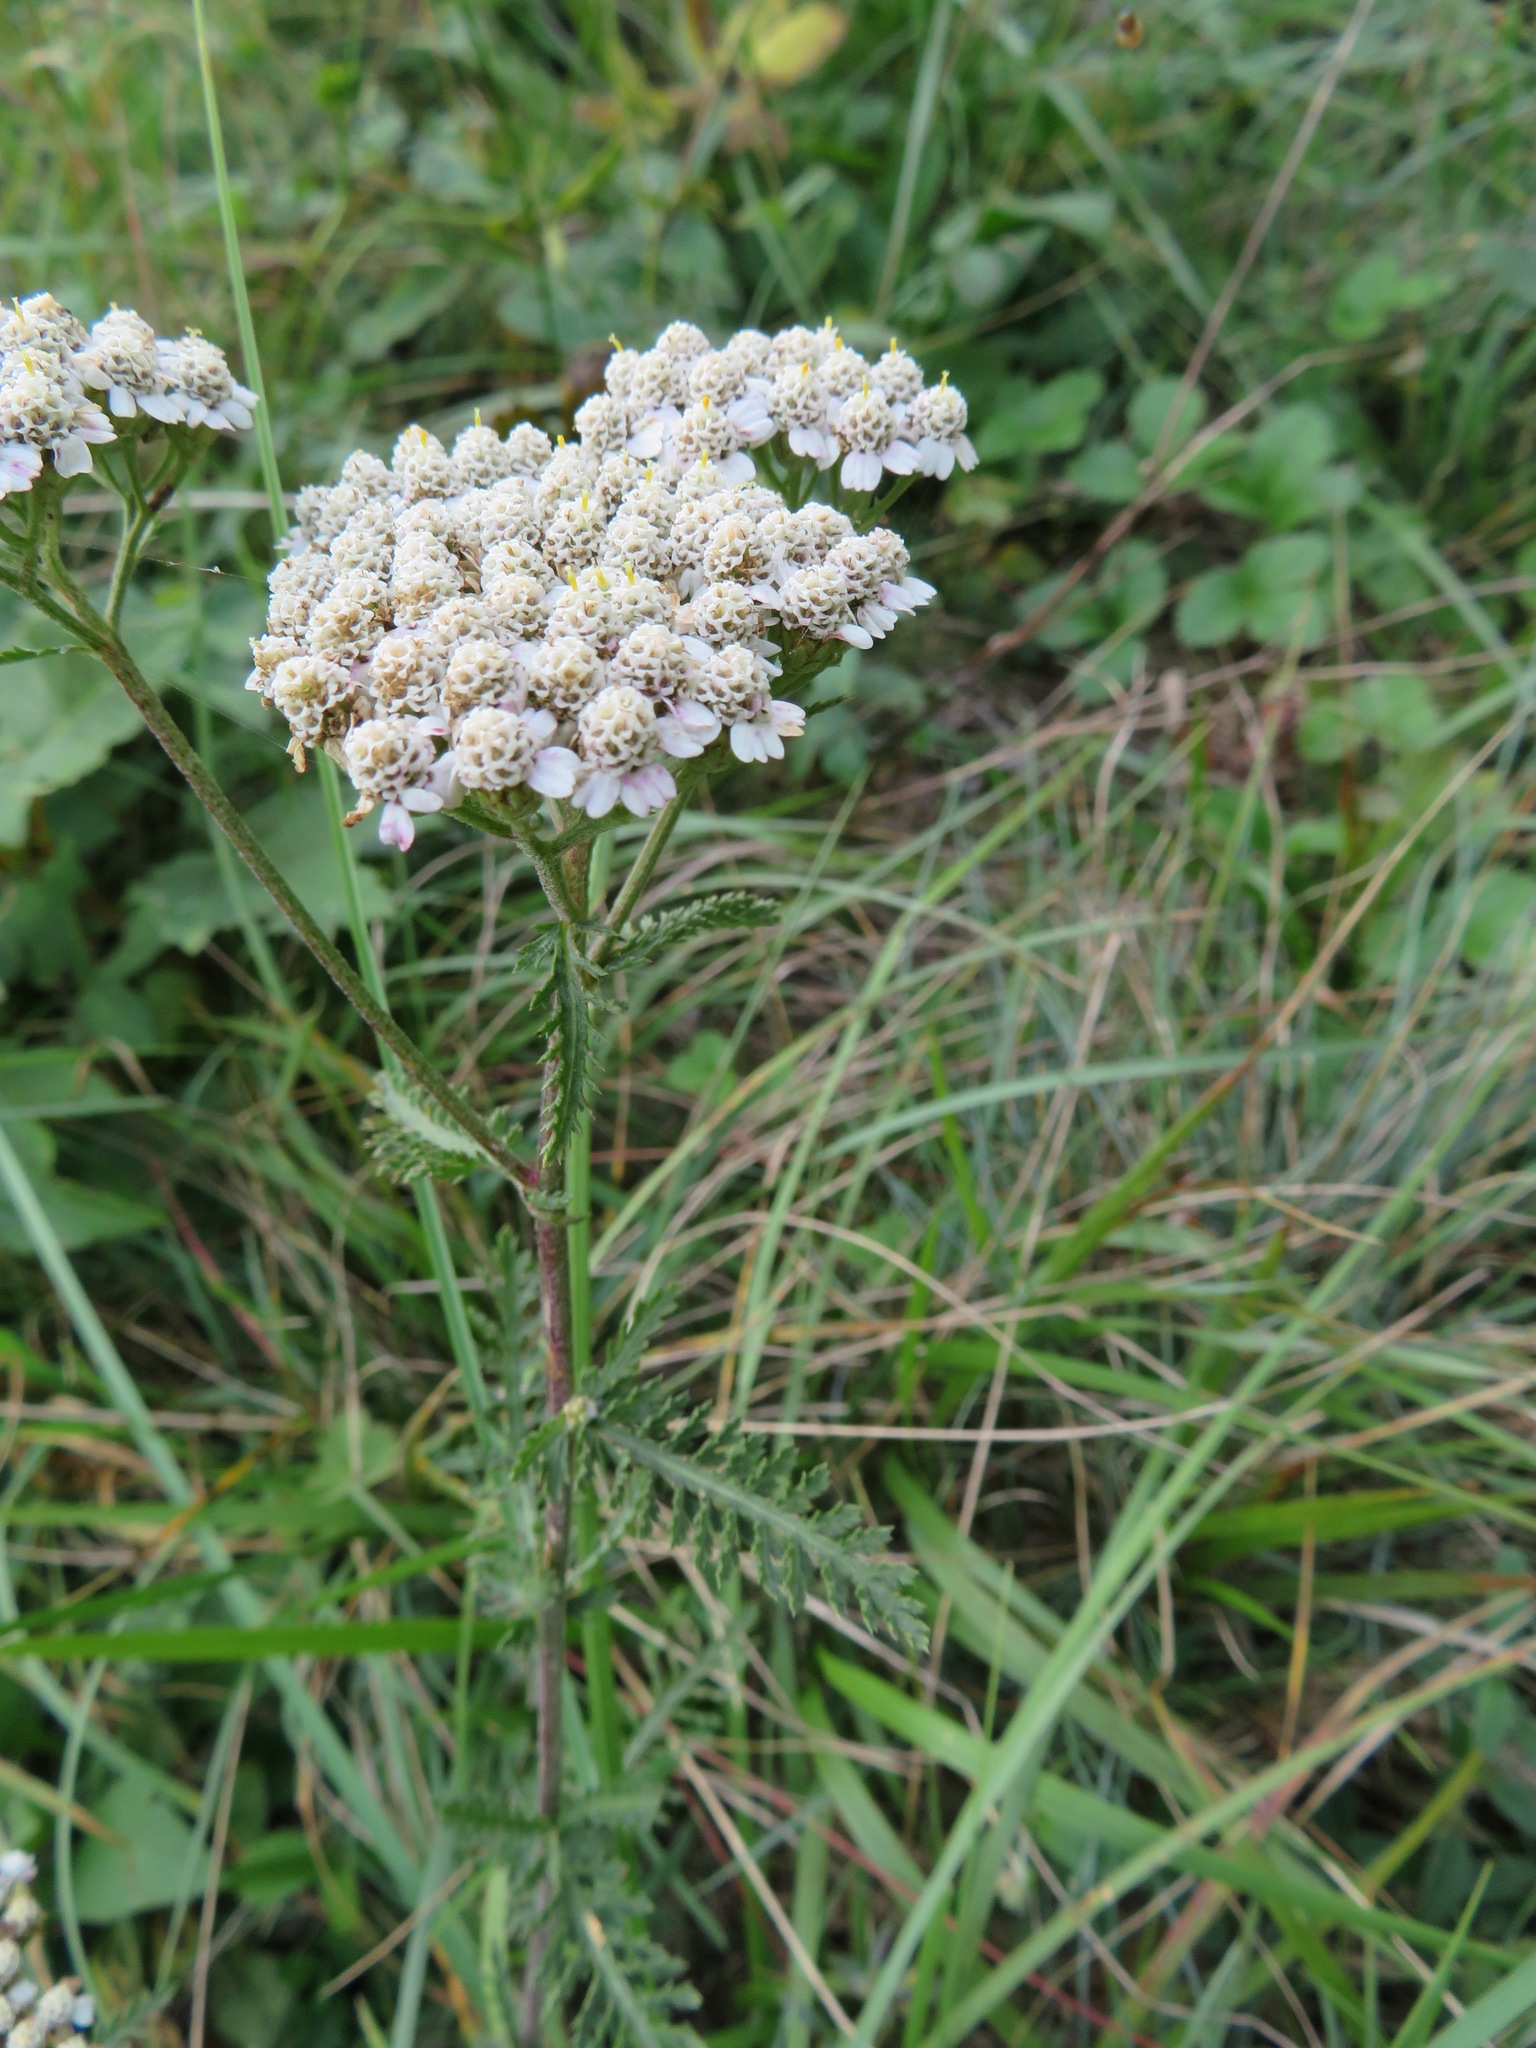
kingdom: Plantae
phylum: Tracheophyta
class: Magnoliopsida
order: Asterales
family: Asteraceae
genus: Achillea
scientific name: Achillea millefolium
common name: Yarrow
